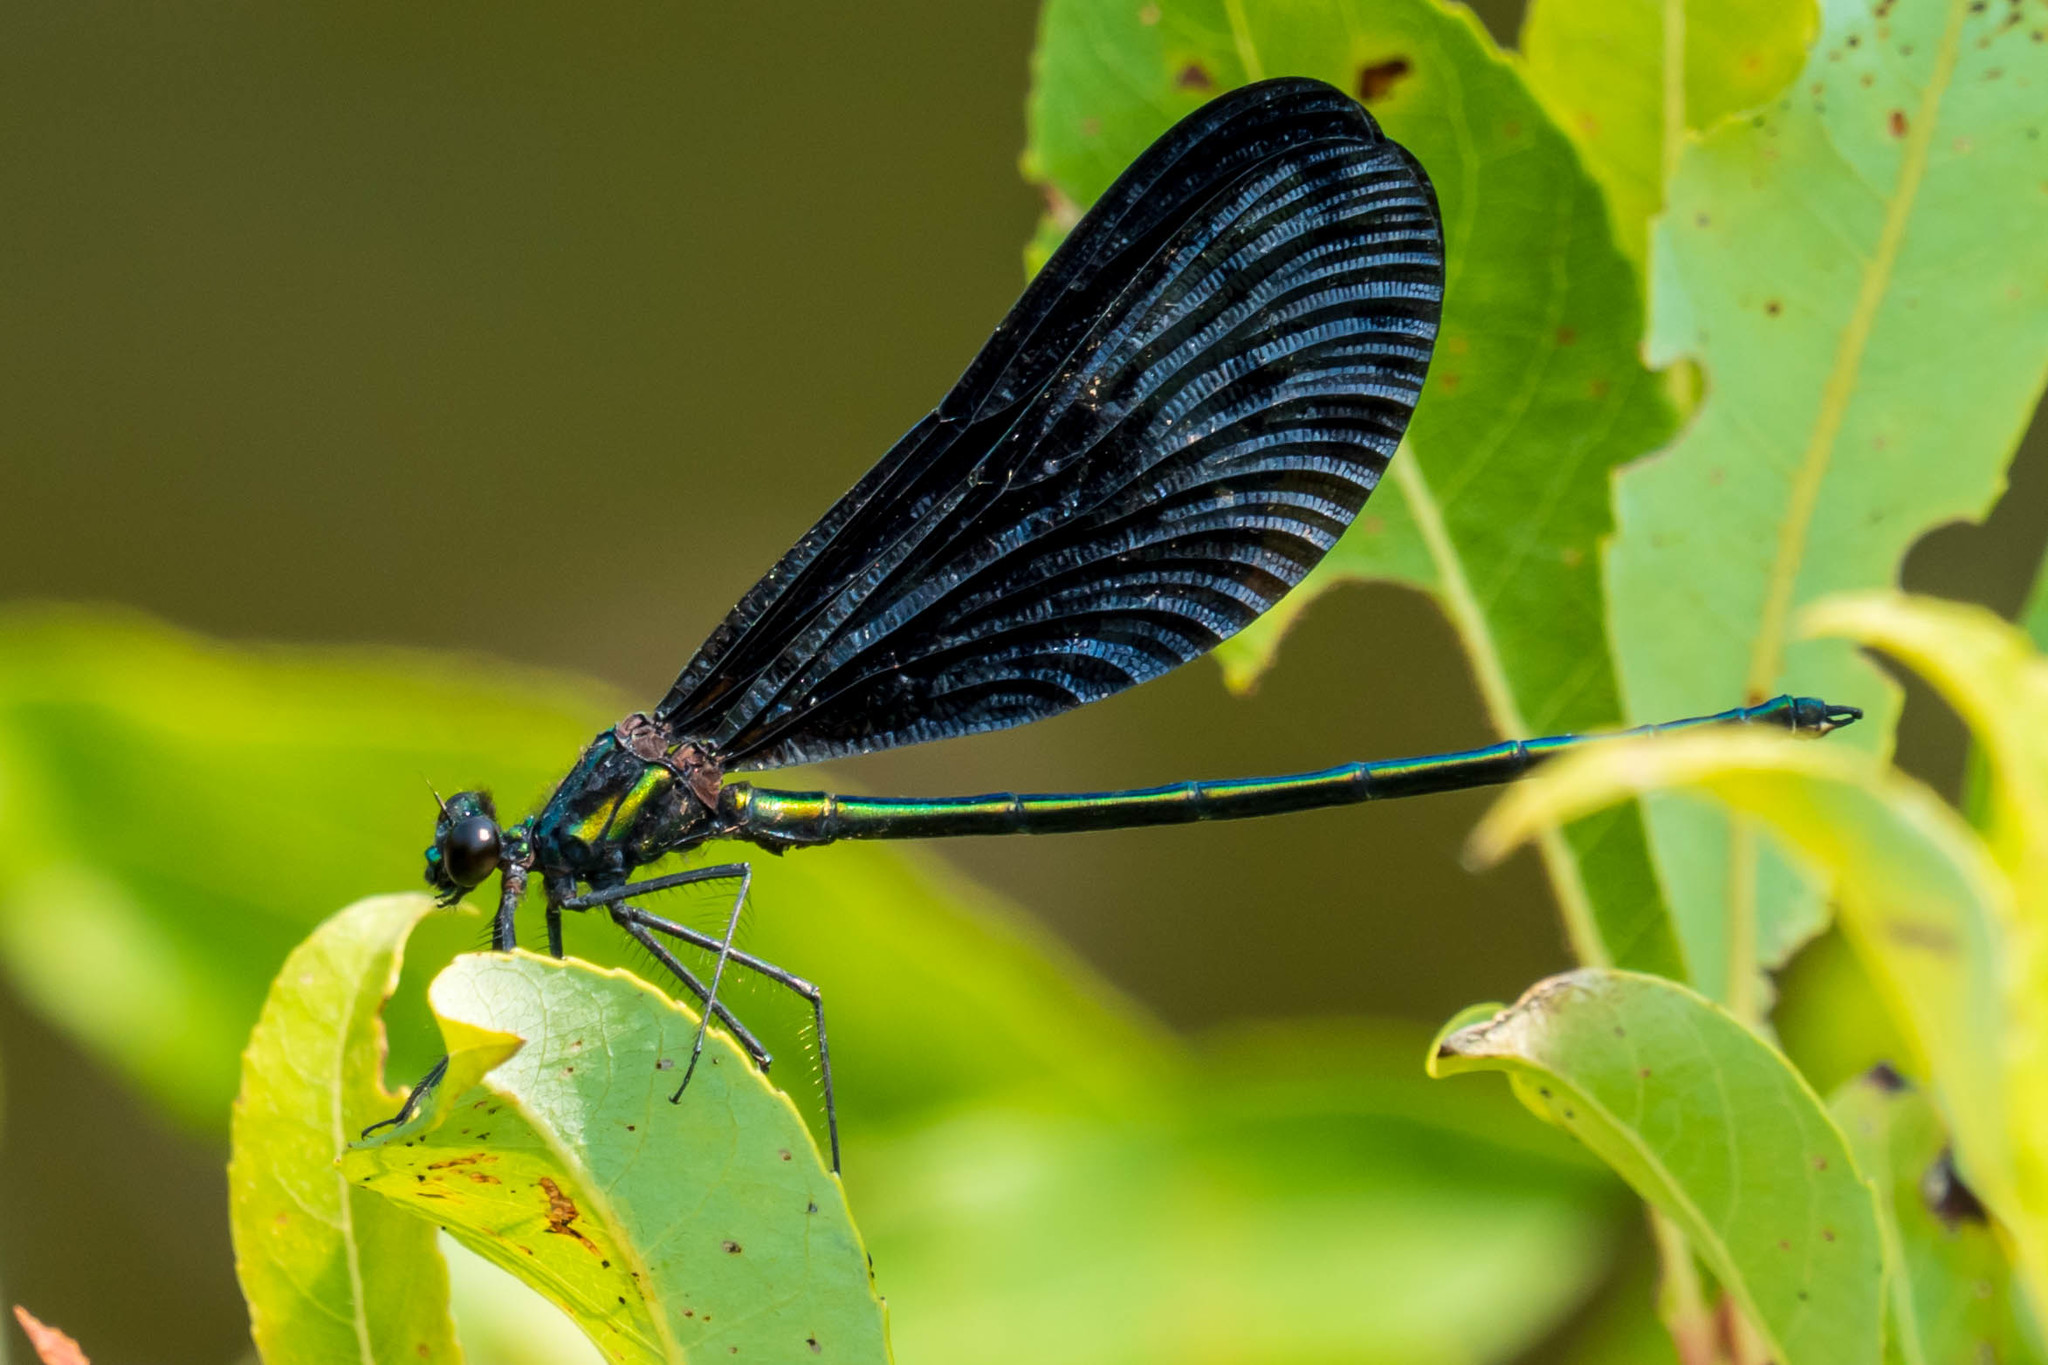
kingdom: Animalia
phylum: Arthropoda
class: Insecta
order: Odonata
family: Calopterygidae
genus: Calopteryx
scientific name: Calopteryx maculata
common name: Ebony jewelwing
